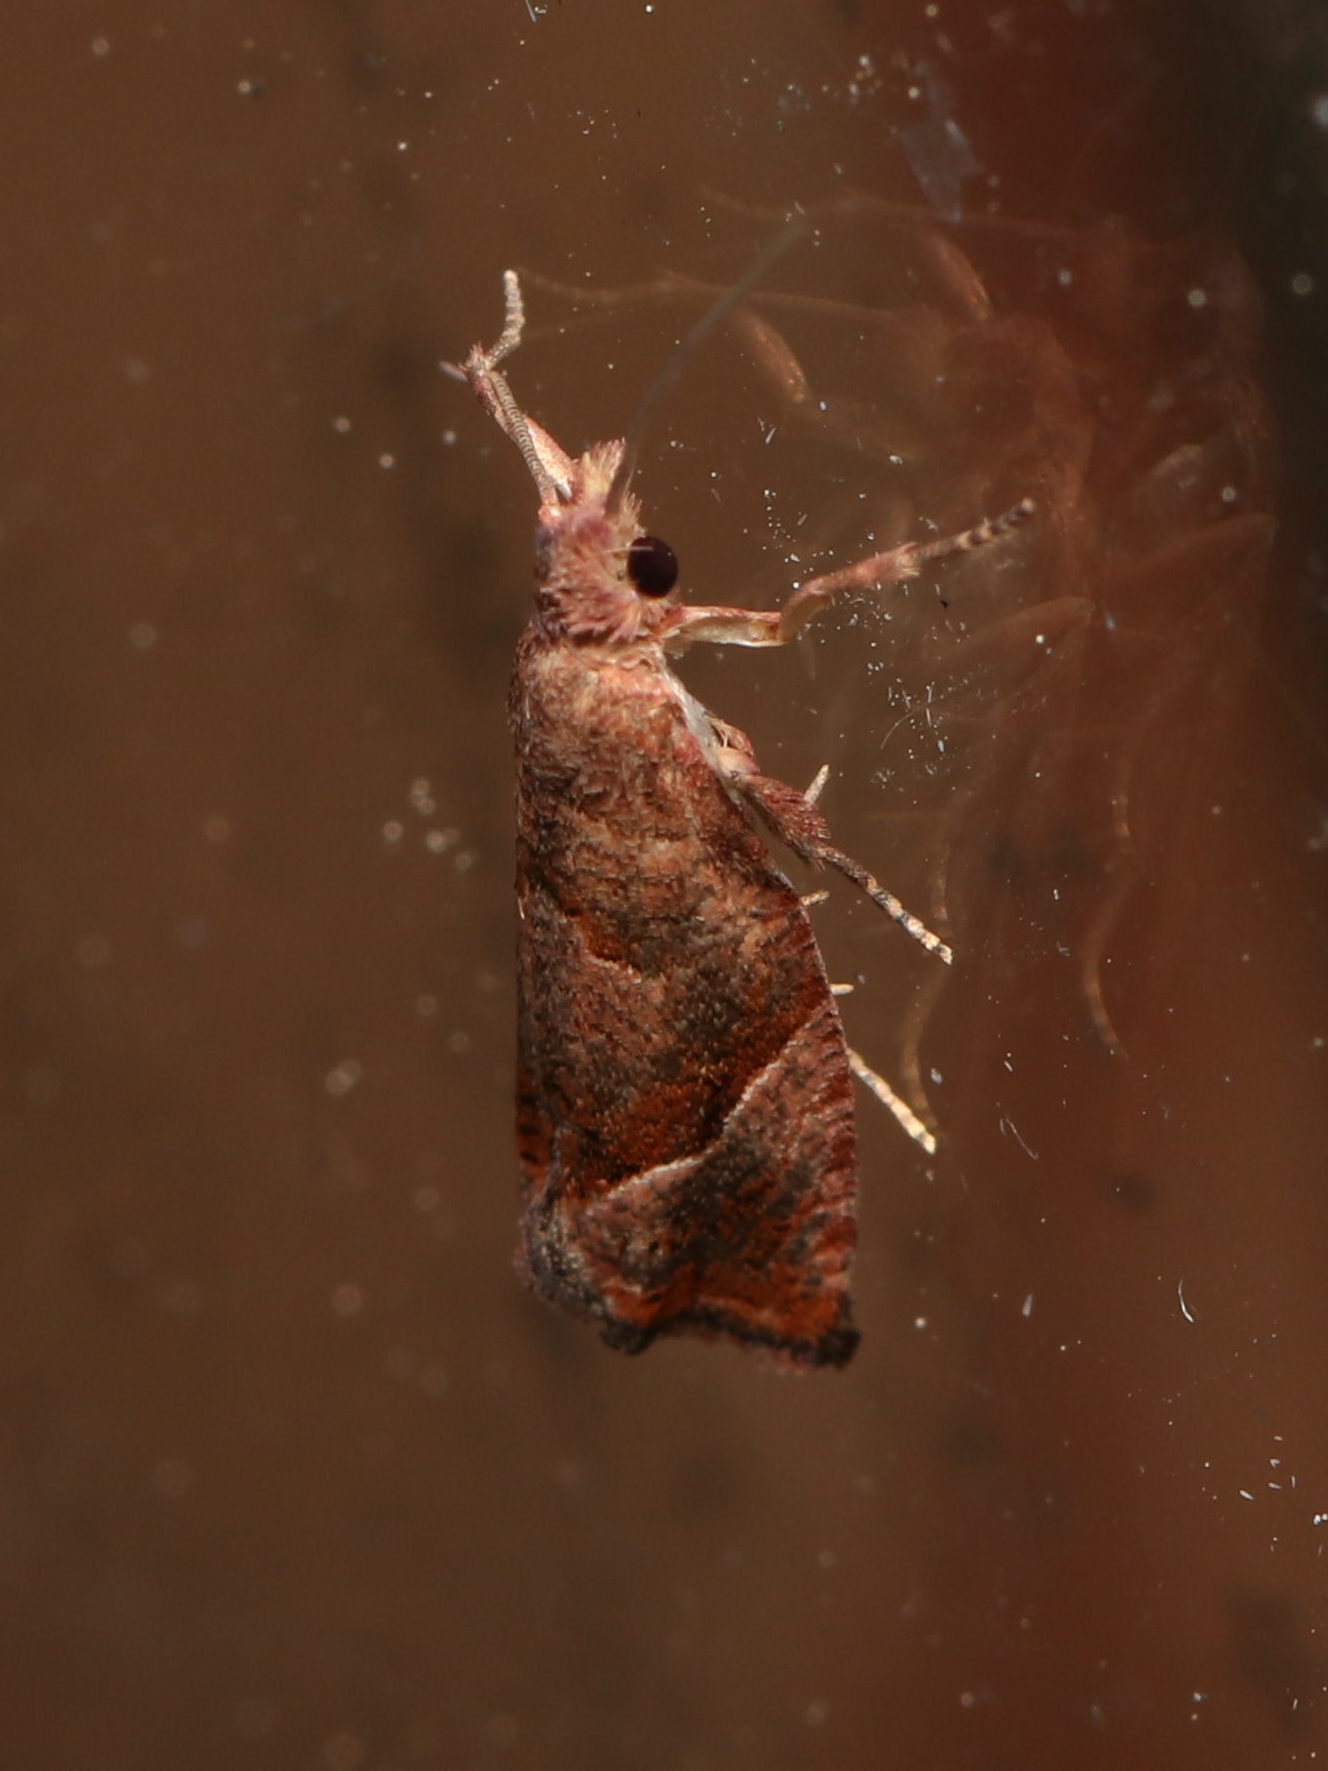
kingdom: Animalia
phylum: Arthropoda
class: Insecta
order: Lepidoptera
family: Tortricidae
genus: Pelochrista
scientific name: Pelochrista derelicta
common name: Derelict pelochrista moth
